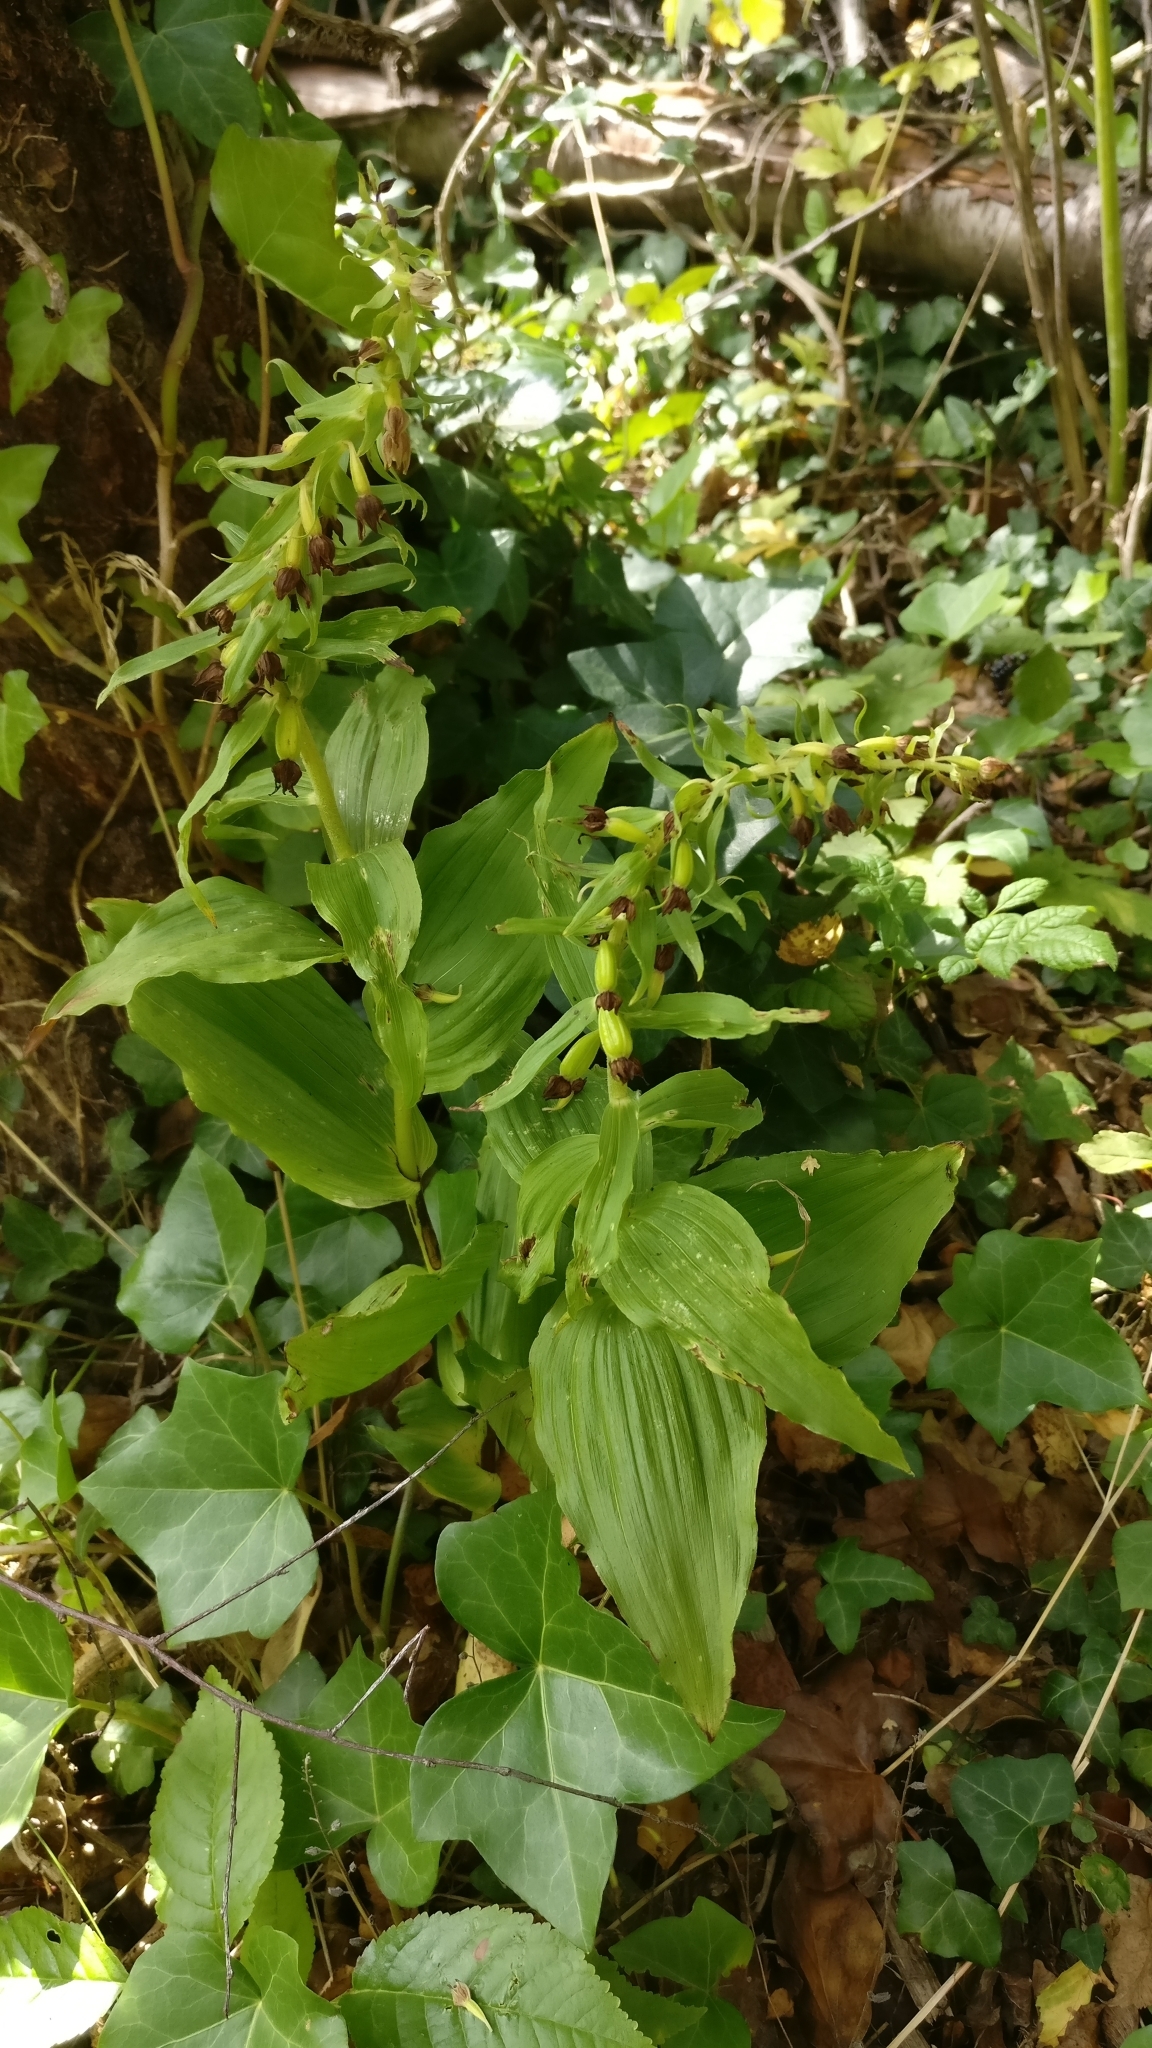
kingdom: Plantae
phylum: Tracheophyta
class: Liliopsida
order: Asparagales
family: Orchidaceae
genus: Epipactis
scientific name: Epipactis helleborine
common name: Broad-leaved helleborine
